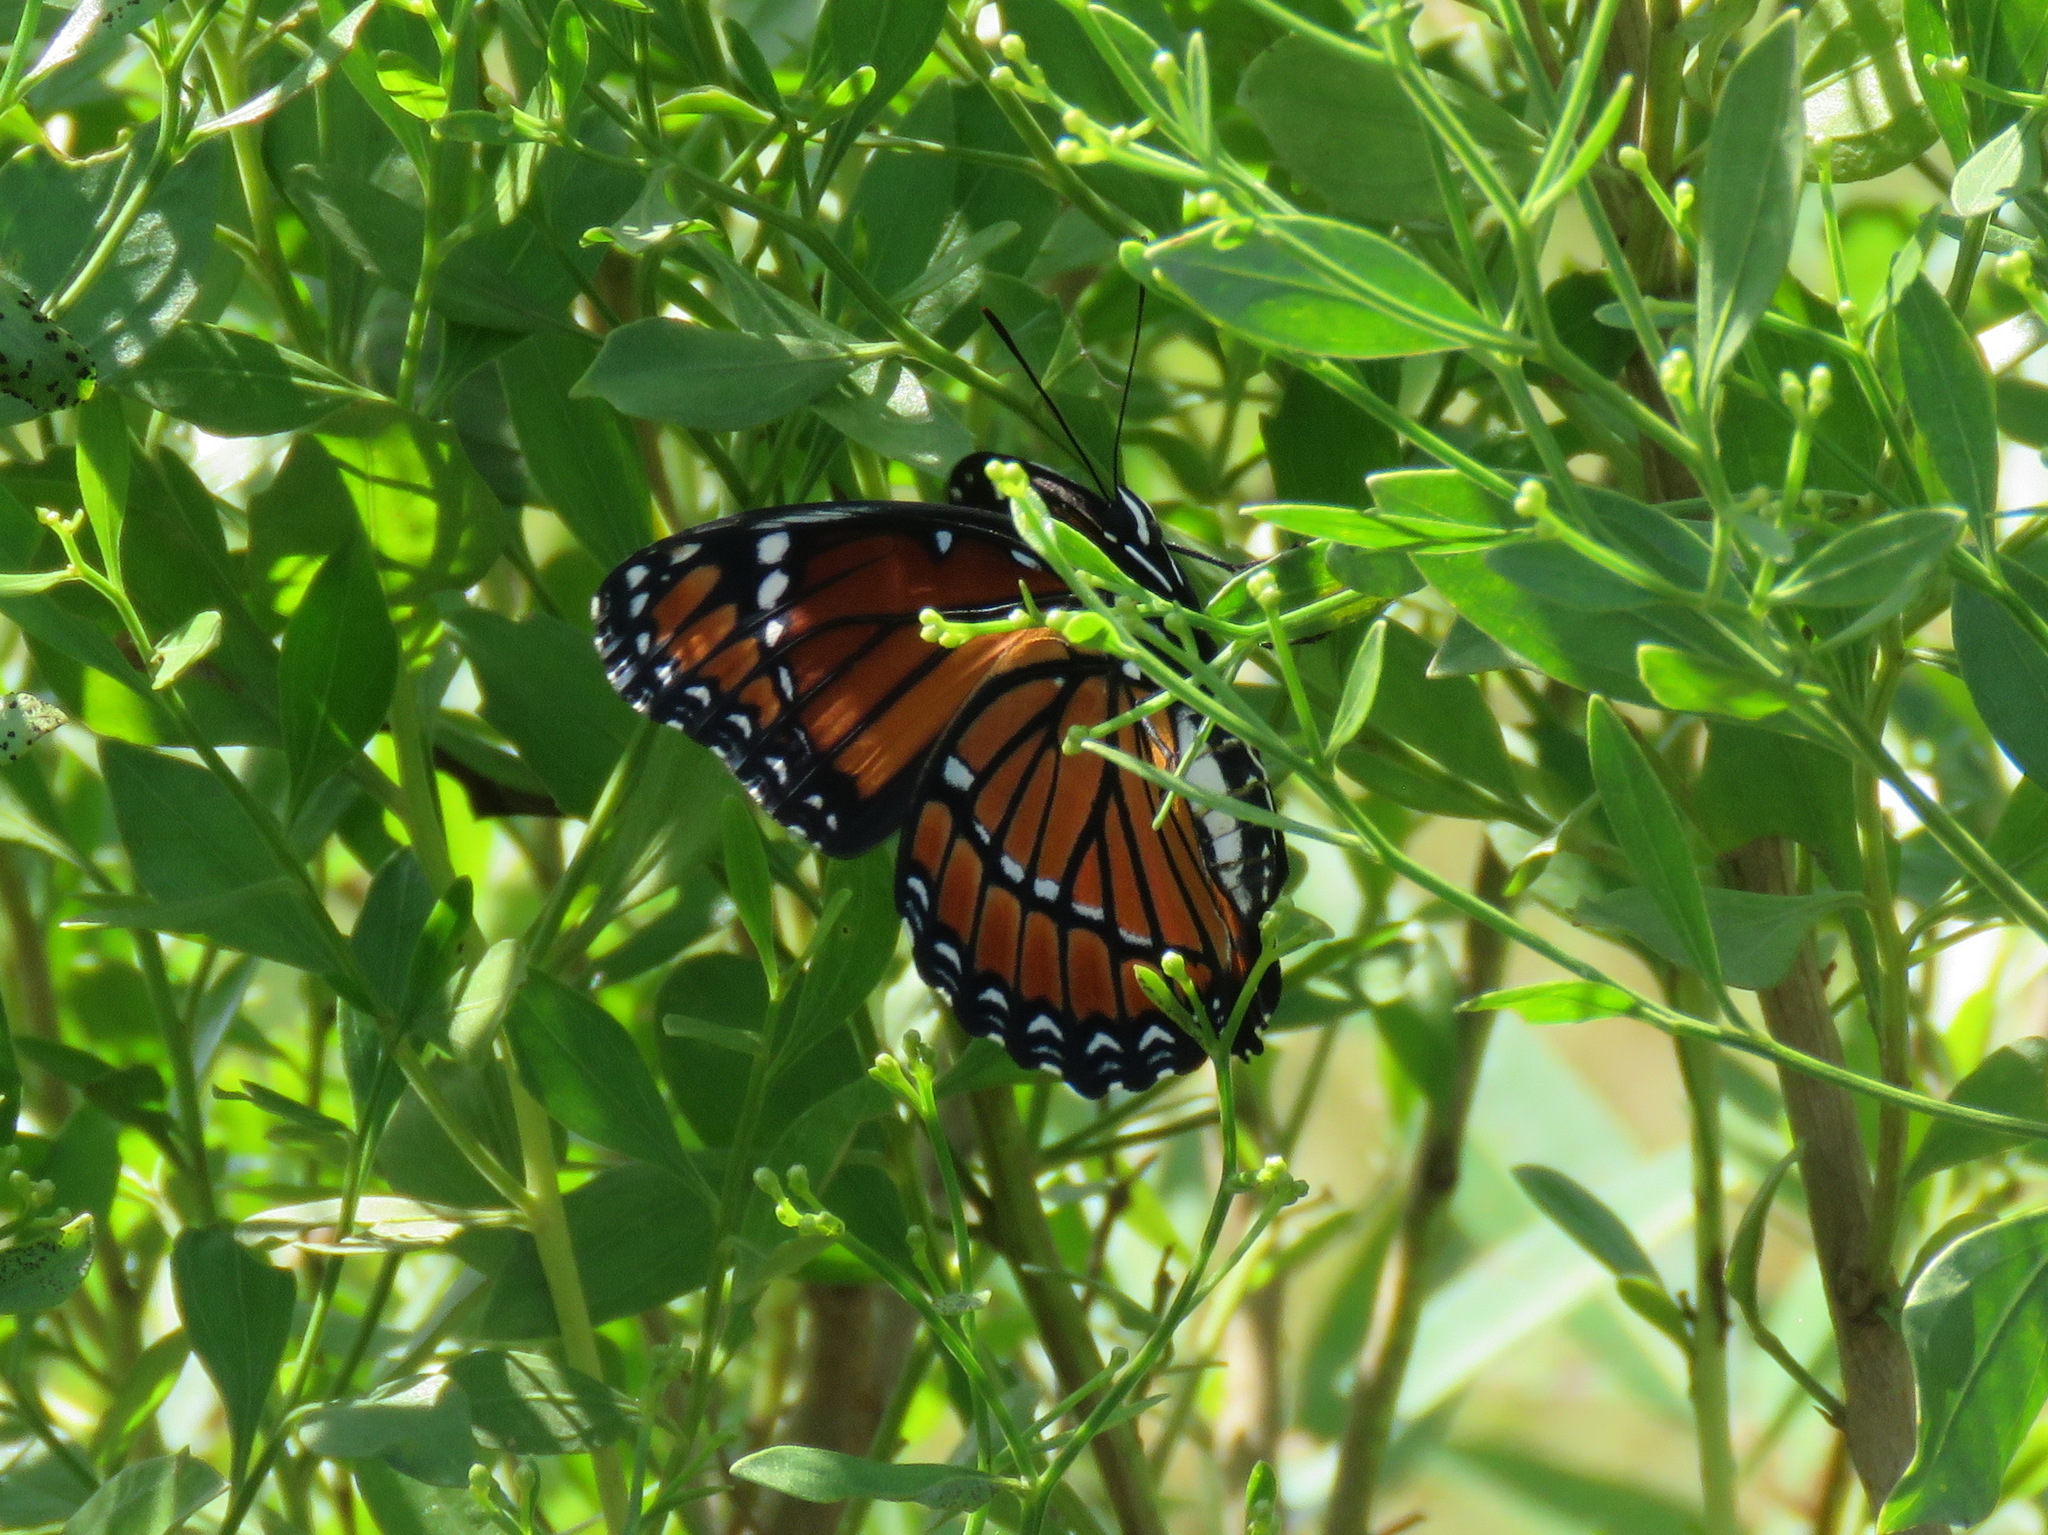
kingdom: Animalia
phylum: Arthropoda
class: Insecta
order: Lepidoptera
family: Nymphalidae
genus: Limenitis
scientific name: Limenitis archippus
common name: Viceroy
